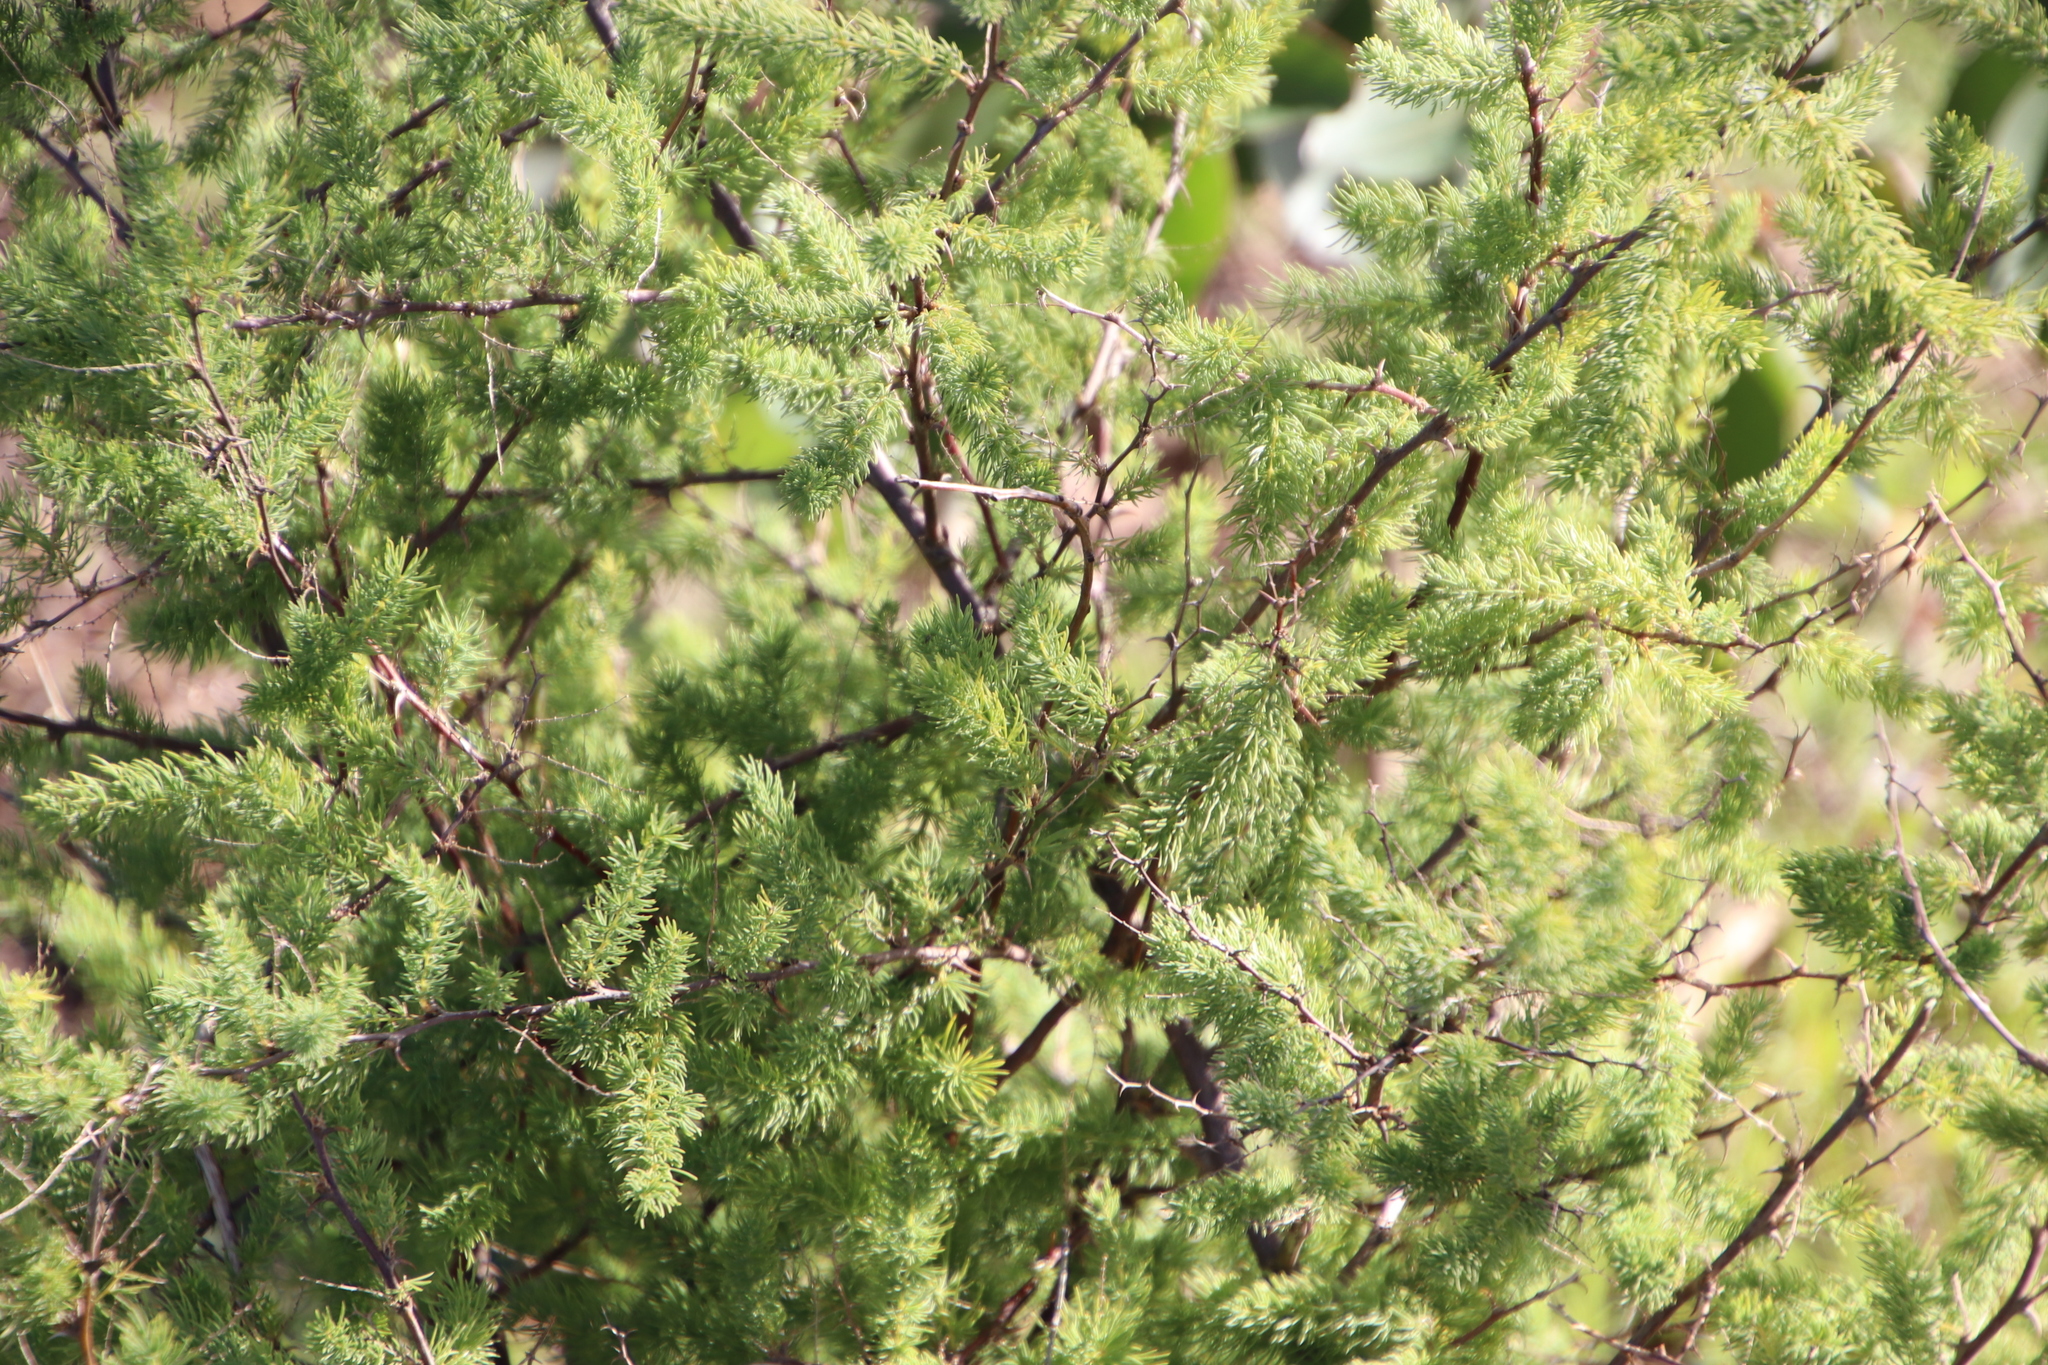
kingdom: Plantae
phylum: Tracheophyta
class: Liliopsida
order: Asparagales
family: Asparagaceae
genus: Asparagus
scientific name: Asparagus rubicundus
